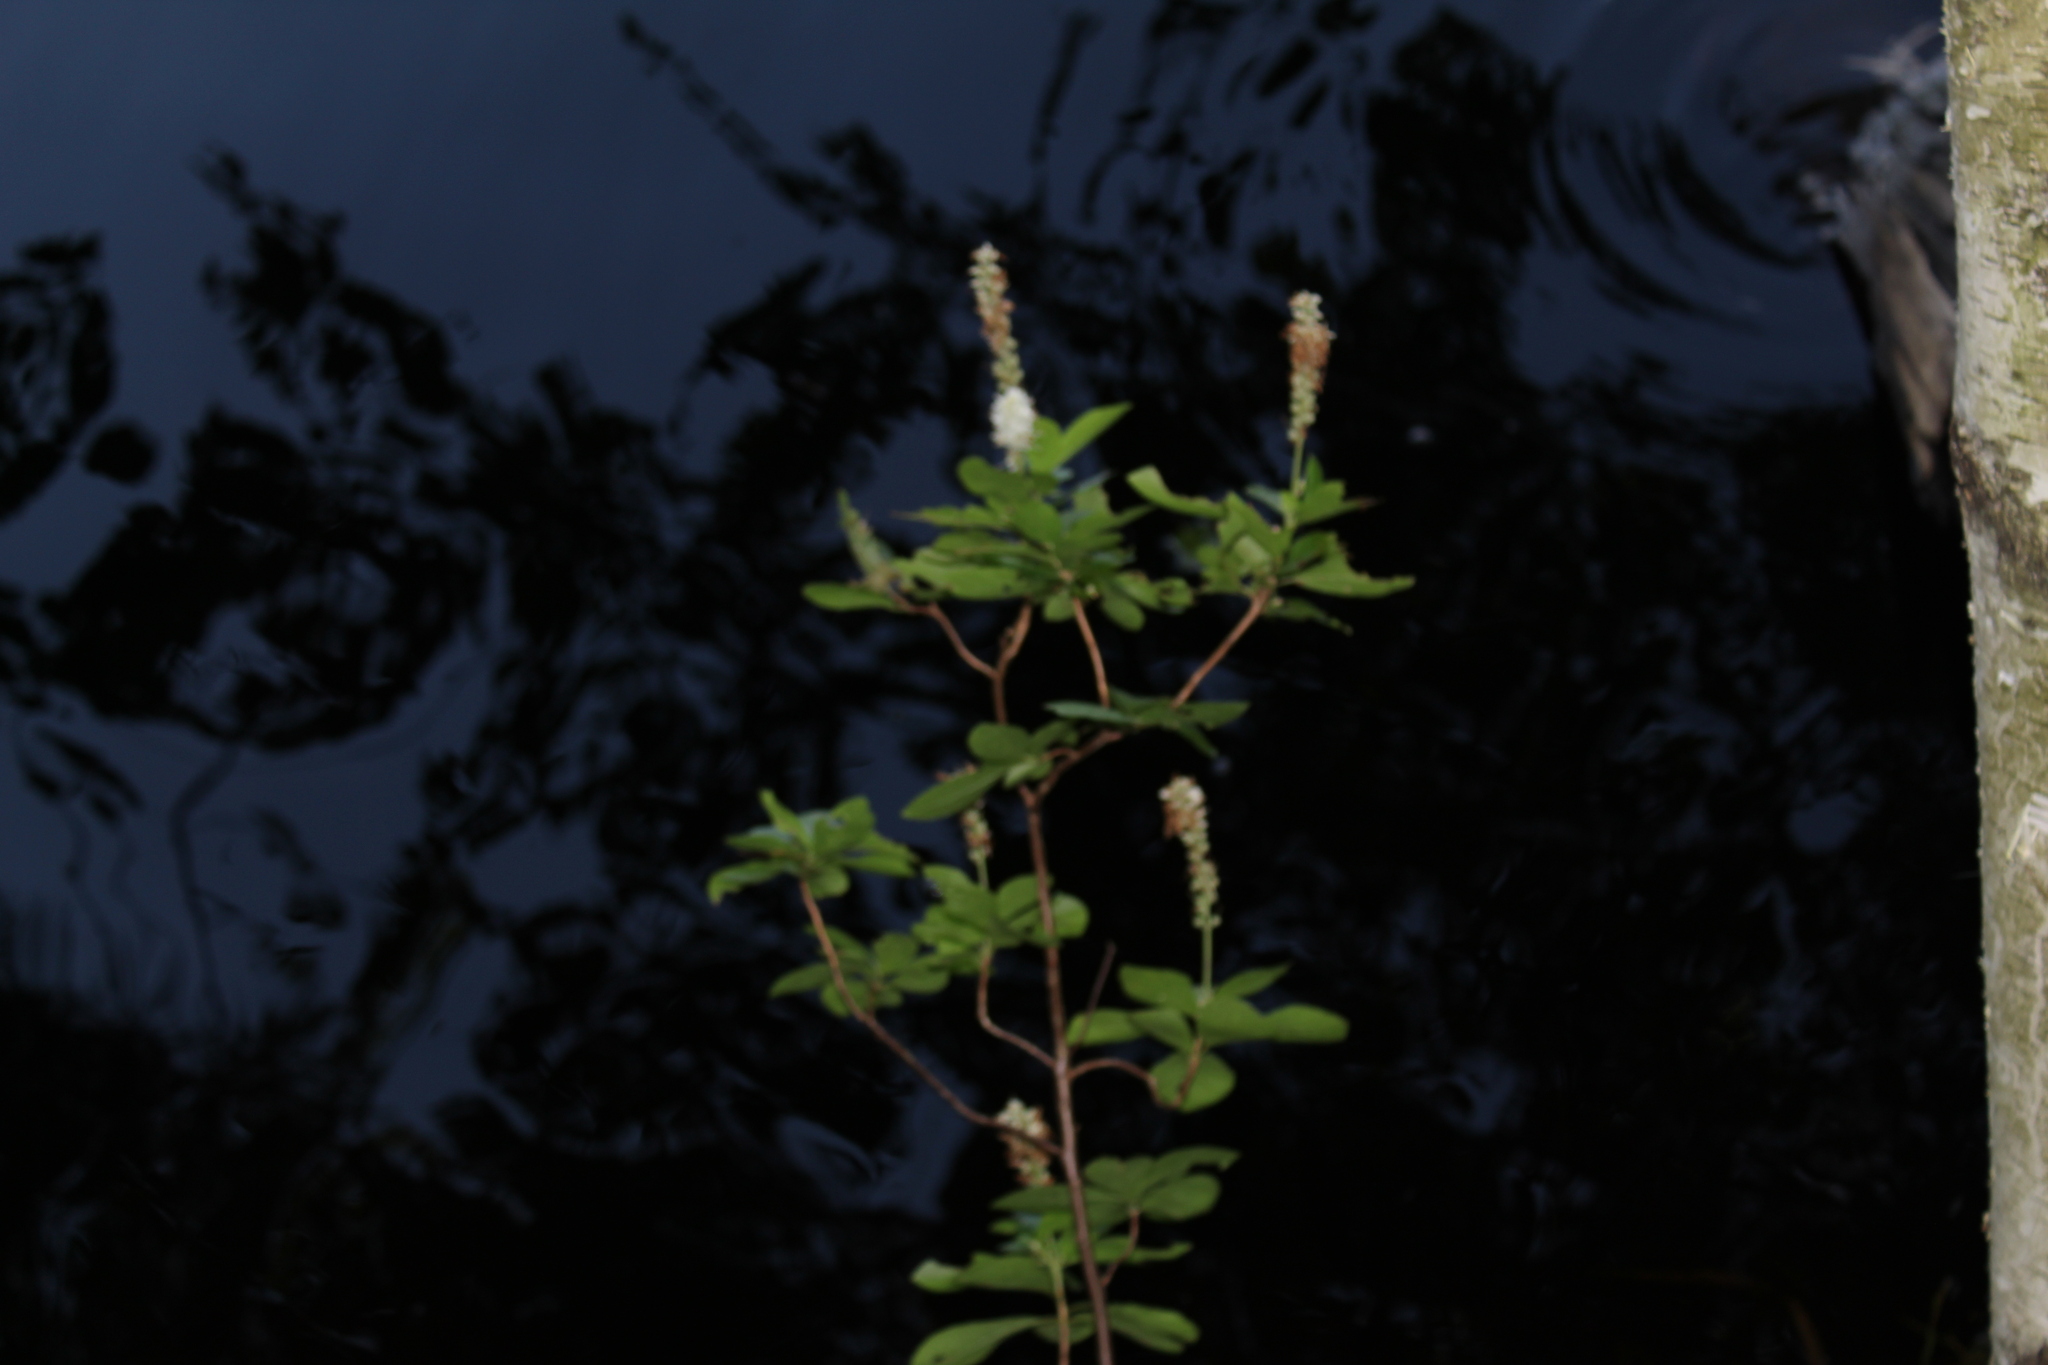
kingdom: Plantae
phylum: Tracheophyta
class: Magnoliopsida
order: Ericales
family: Clethraceae
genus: Clethra
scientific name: Clethra alnifolia
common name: Sweet pepperbush
